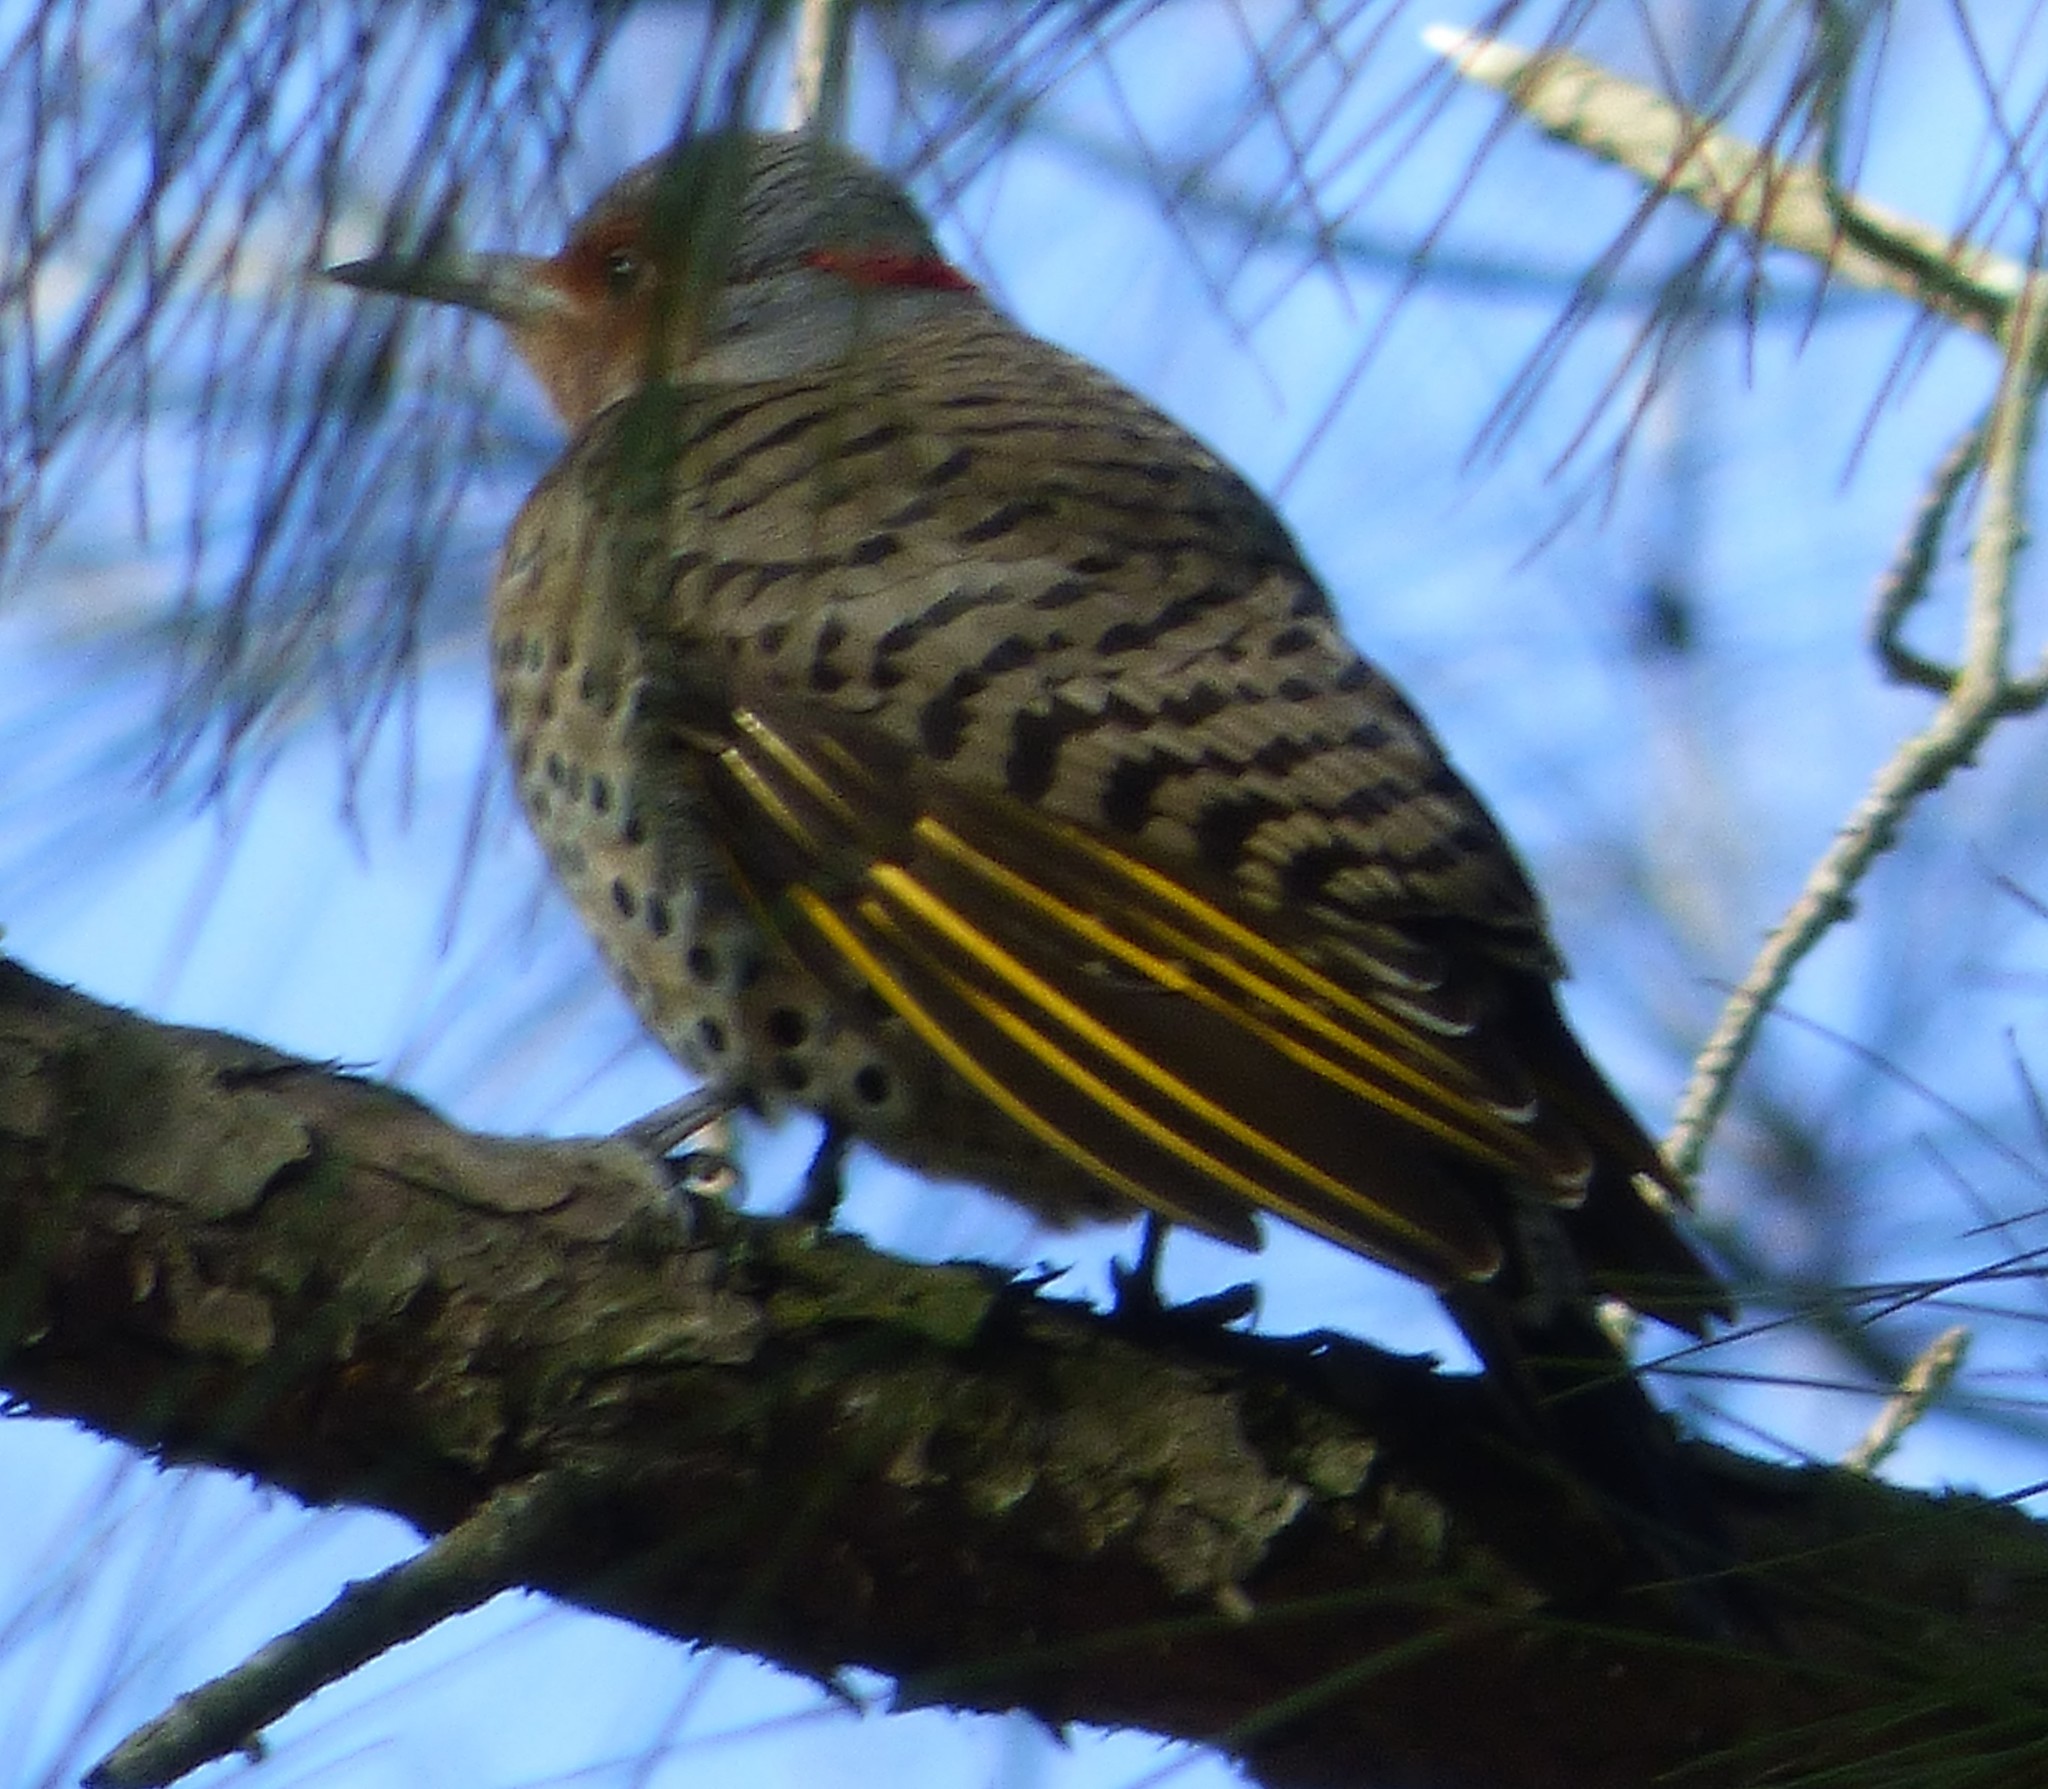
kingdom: Animalia
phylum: Chordata
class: Aves
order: Piciformes
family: Picidae
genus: Colaptes
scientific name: Colaptes auratus
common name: Northern flicker
